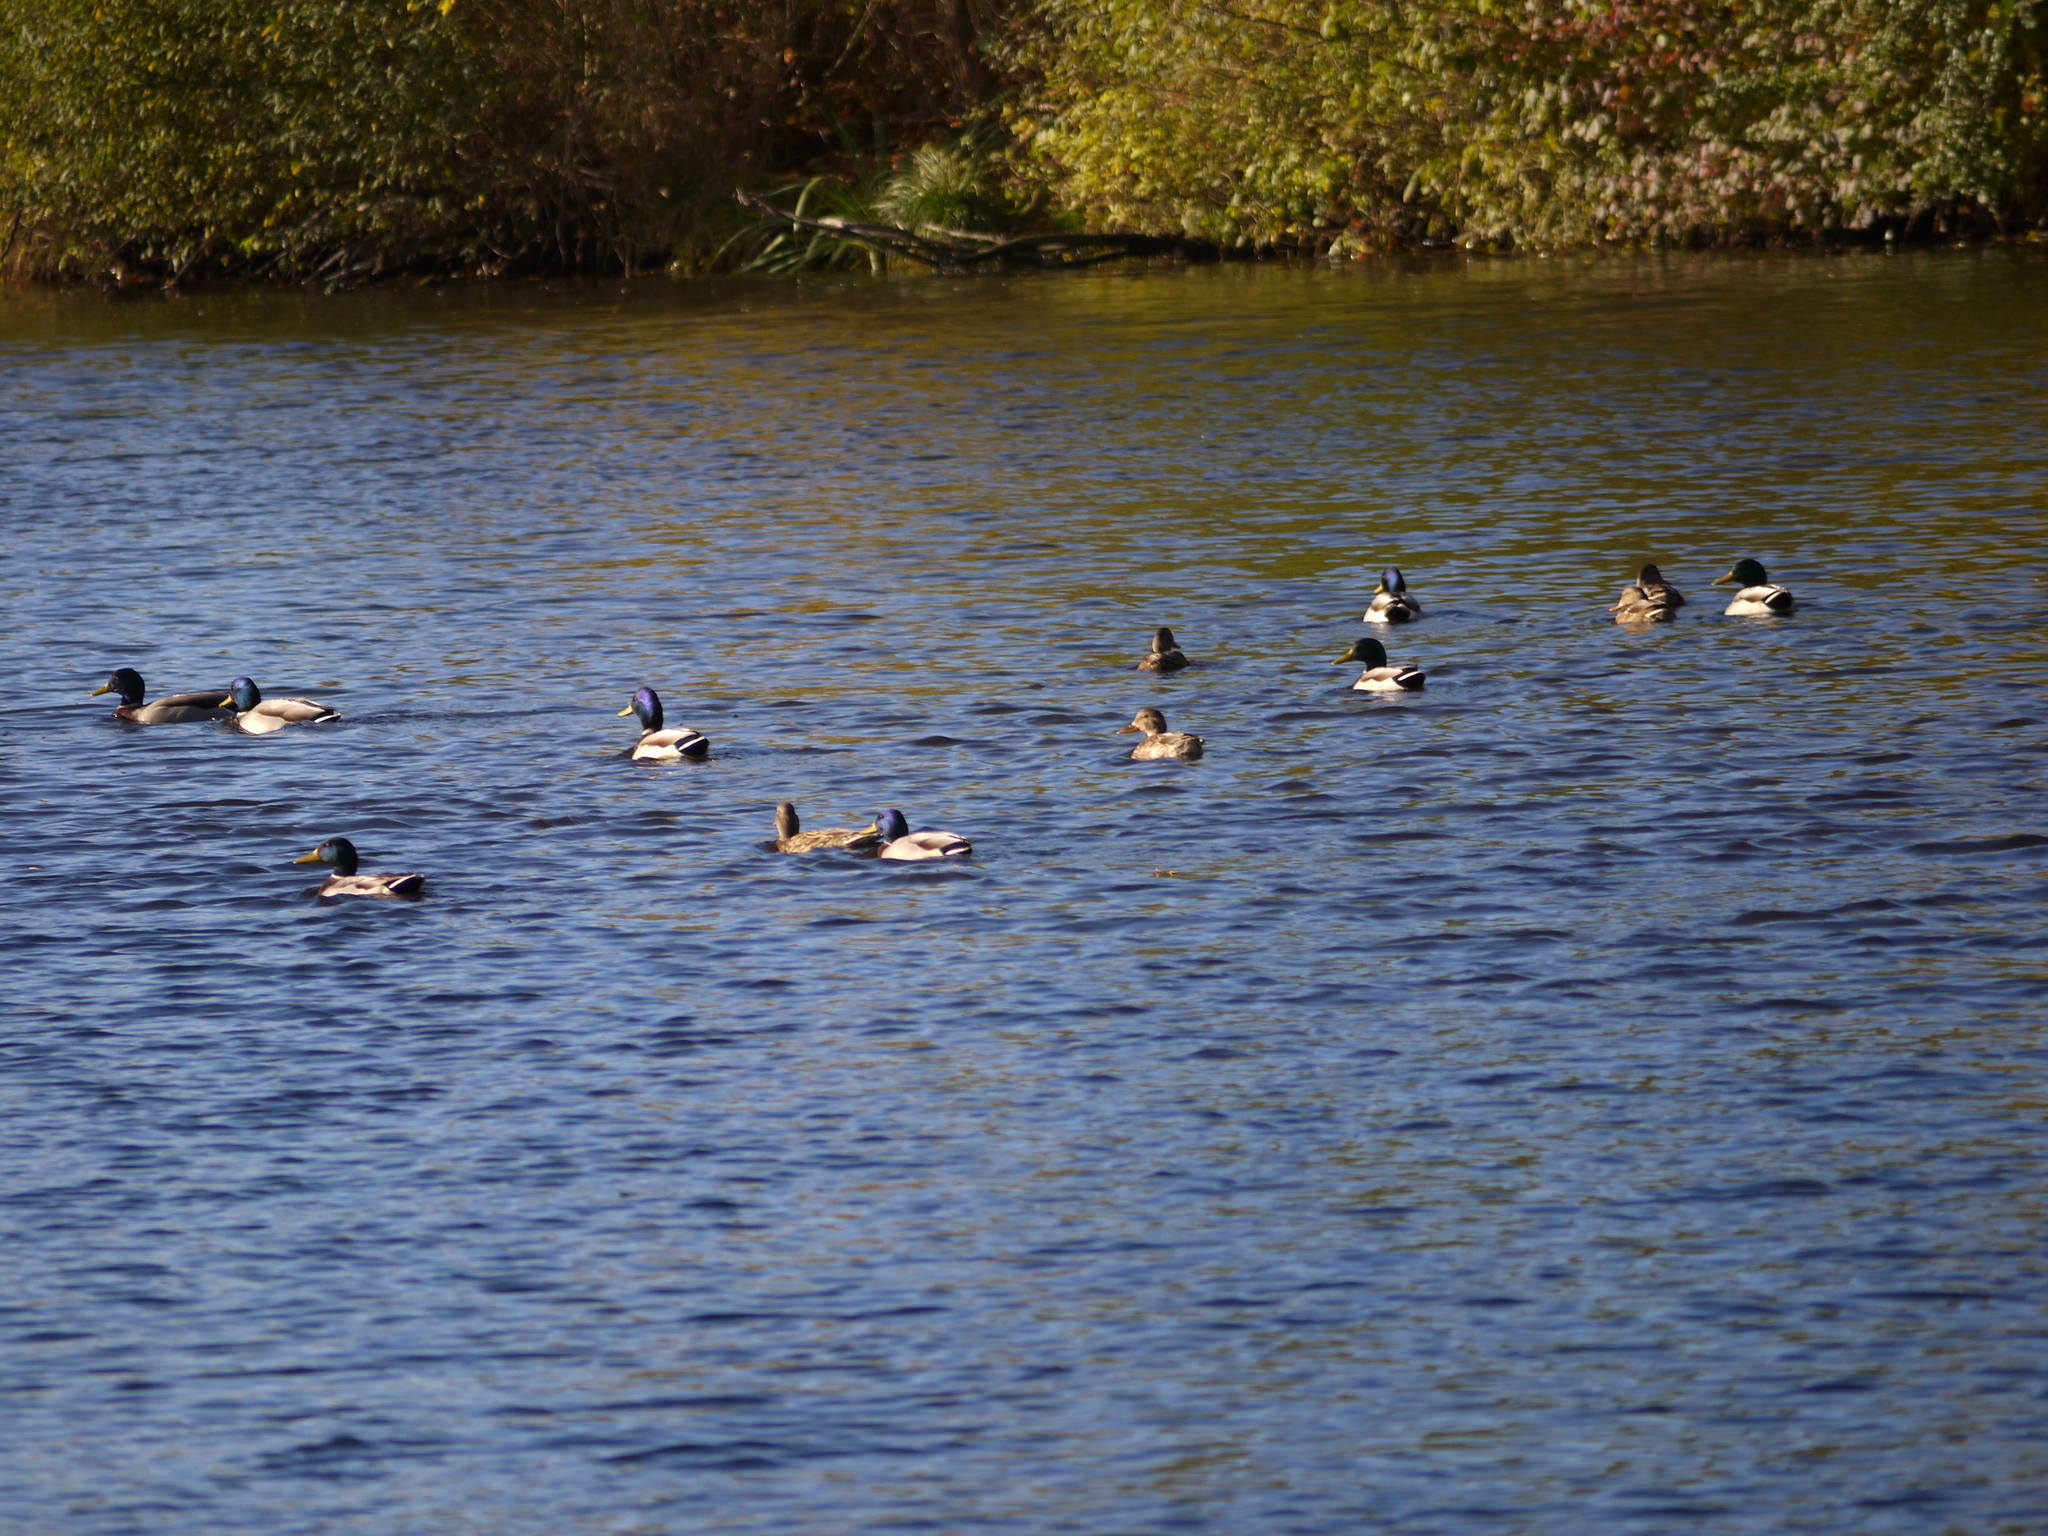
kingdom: Animalia
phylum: Chordata
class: Aves
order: Anseriformes
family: Anatidae
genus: Anas
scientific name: Anas platyrhynchos
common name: Mallard
